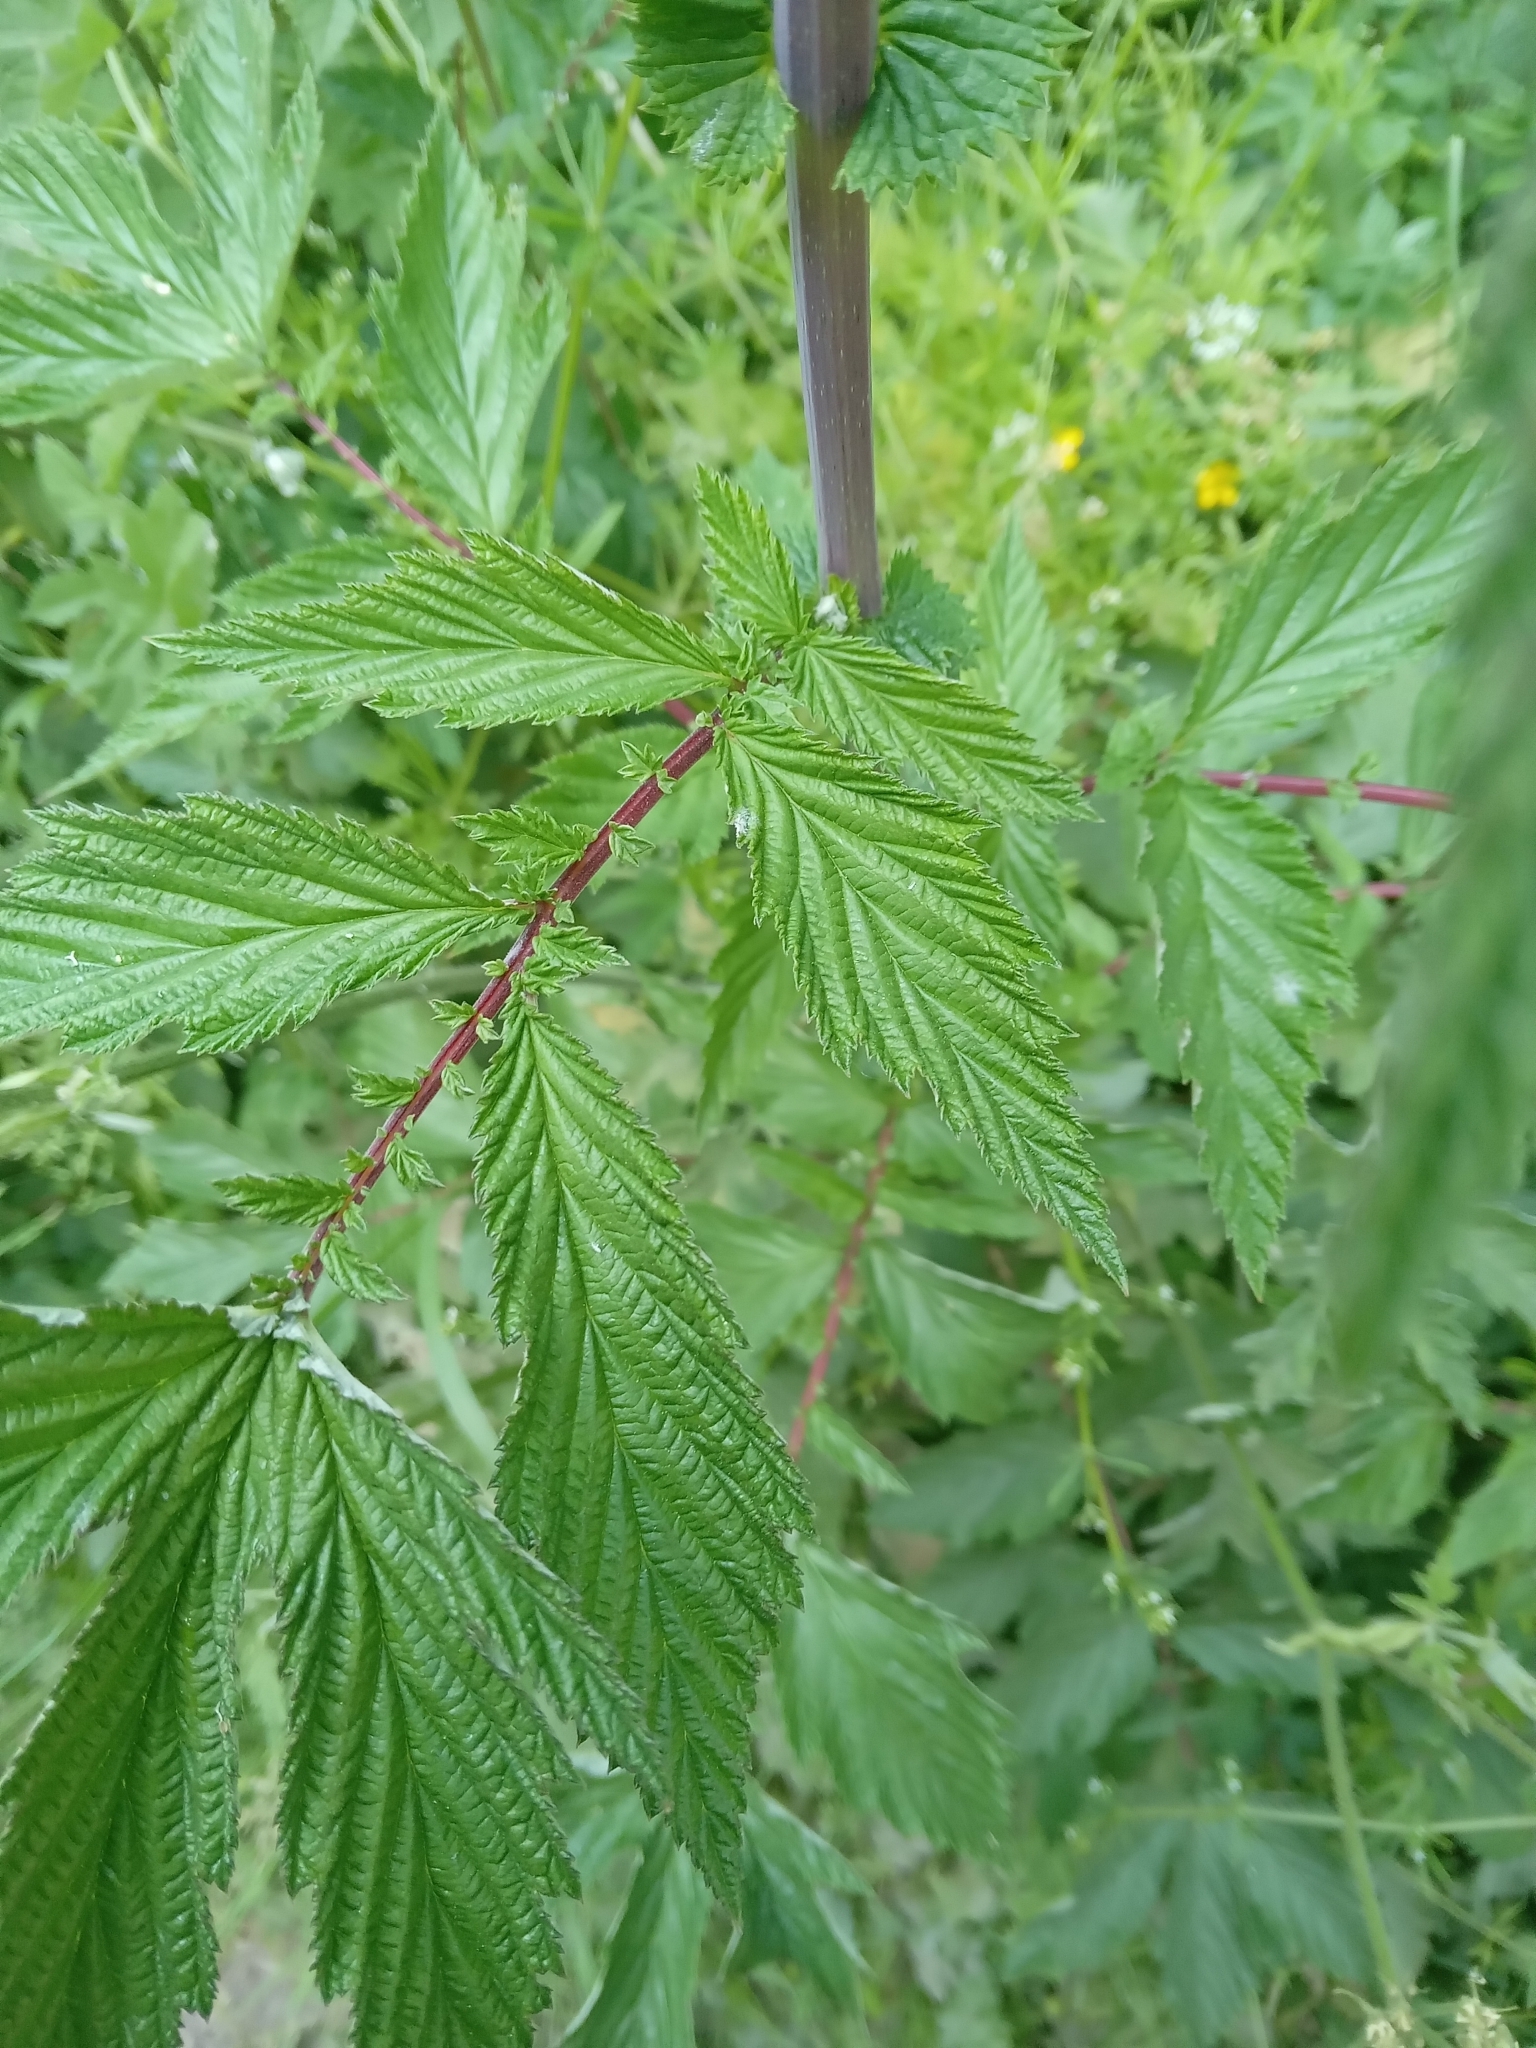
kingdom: Plantae
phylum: Tracheophyta
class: Magnoliopsida
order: Rosales
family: Rosaceae
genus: Filipendula
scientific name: Filipendula ulmaria
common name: Meadowsweet
